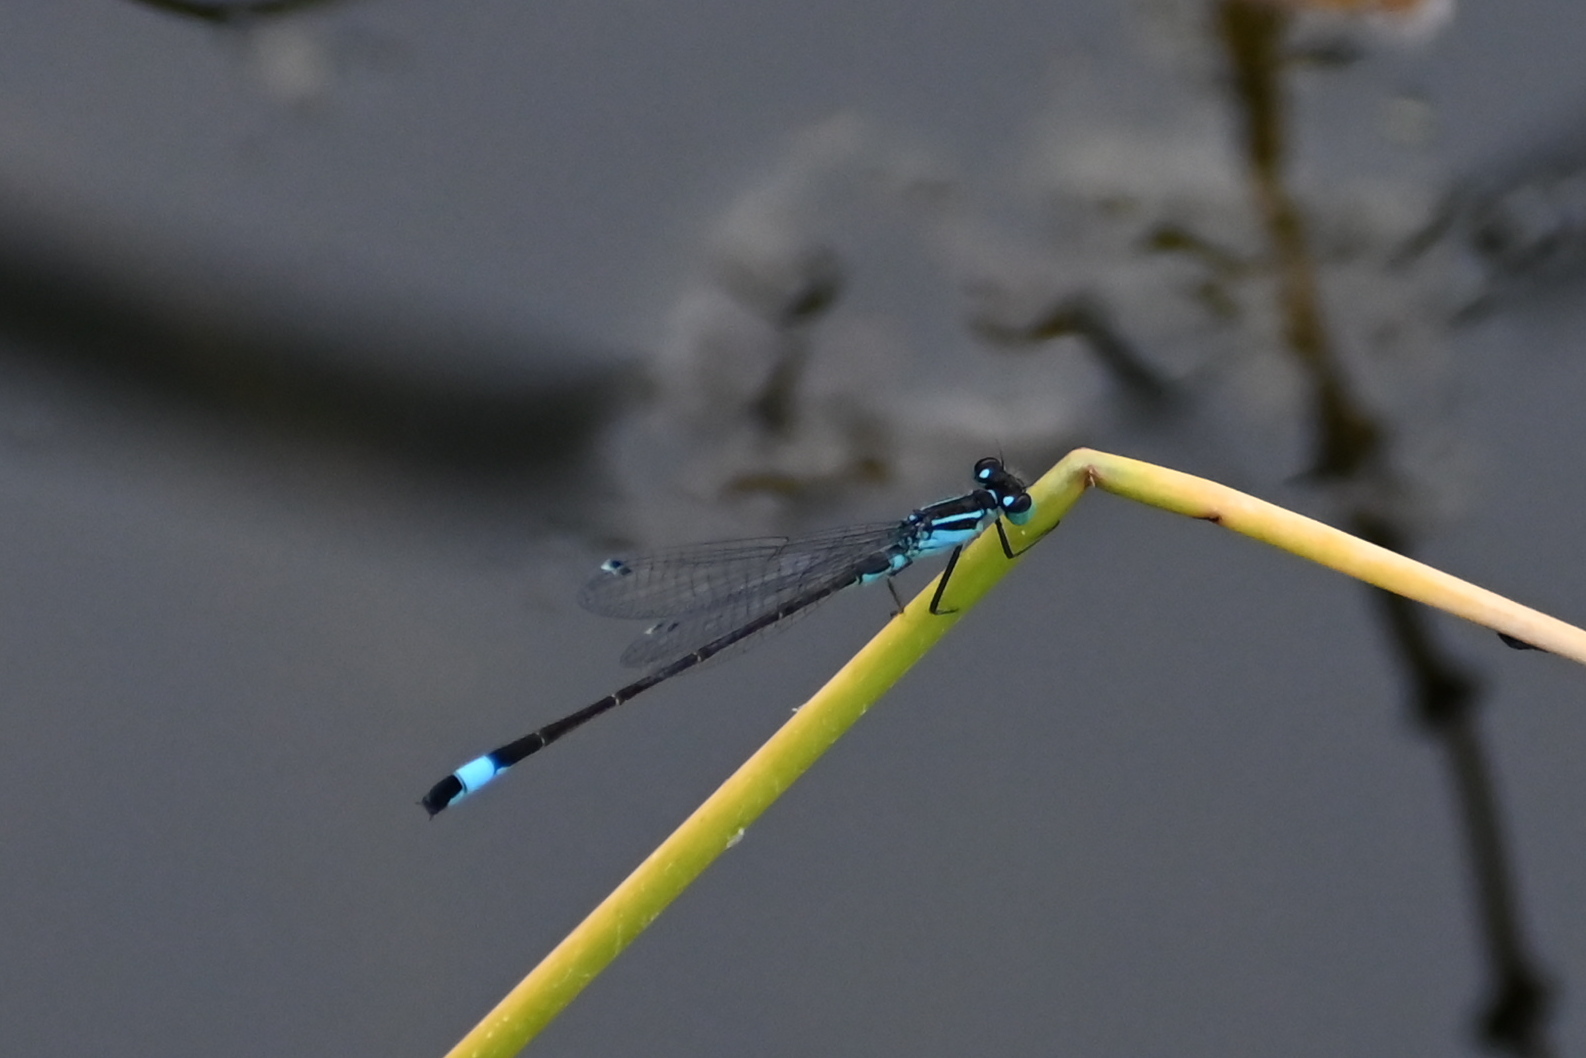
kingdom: Animalia
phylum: Arthropoda
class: Insecta
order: Odonata
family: Coenagrionidae
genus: Ischnura
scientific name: Ischnura elegans
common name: Blue-tailed damselfly
